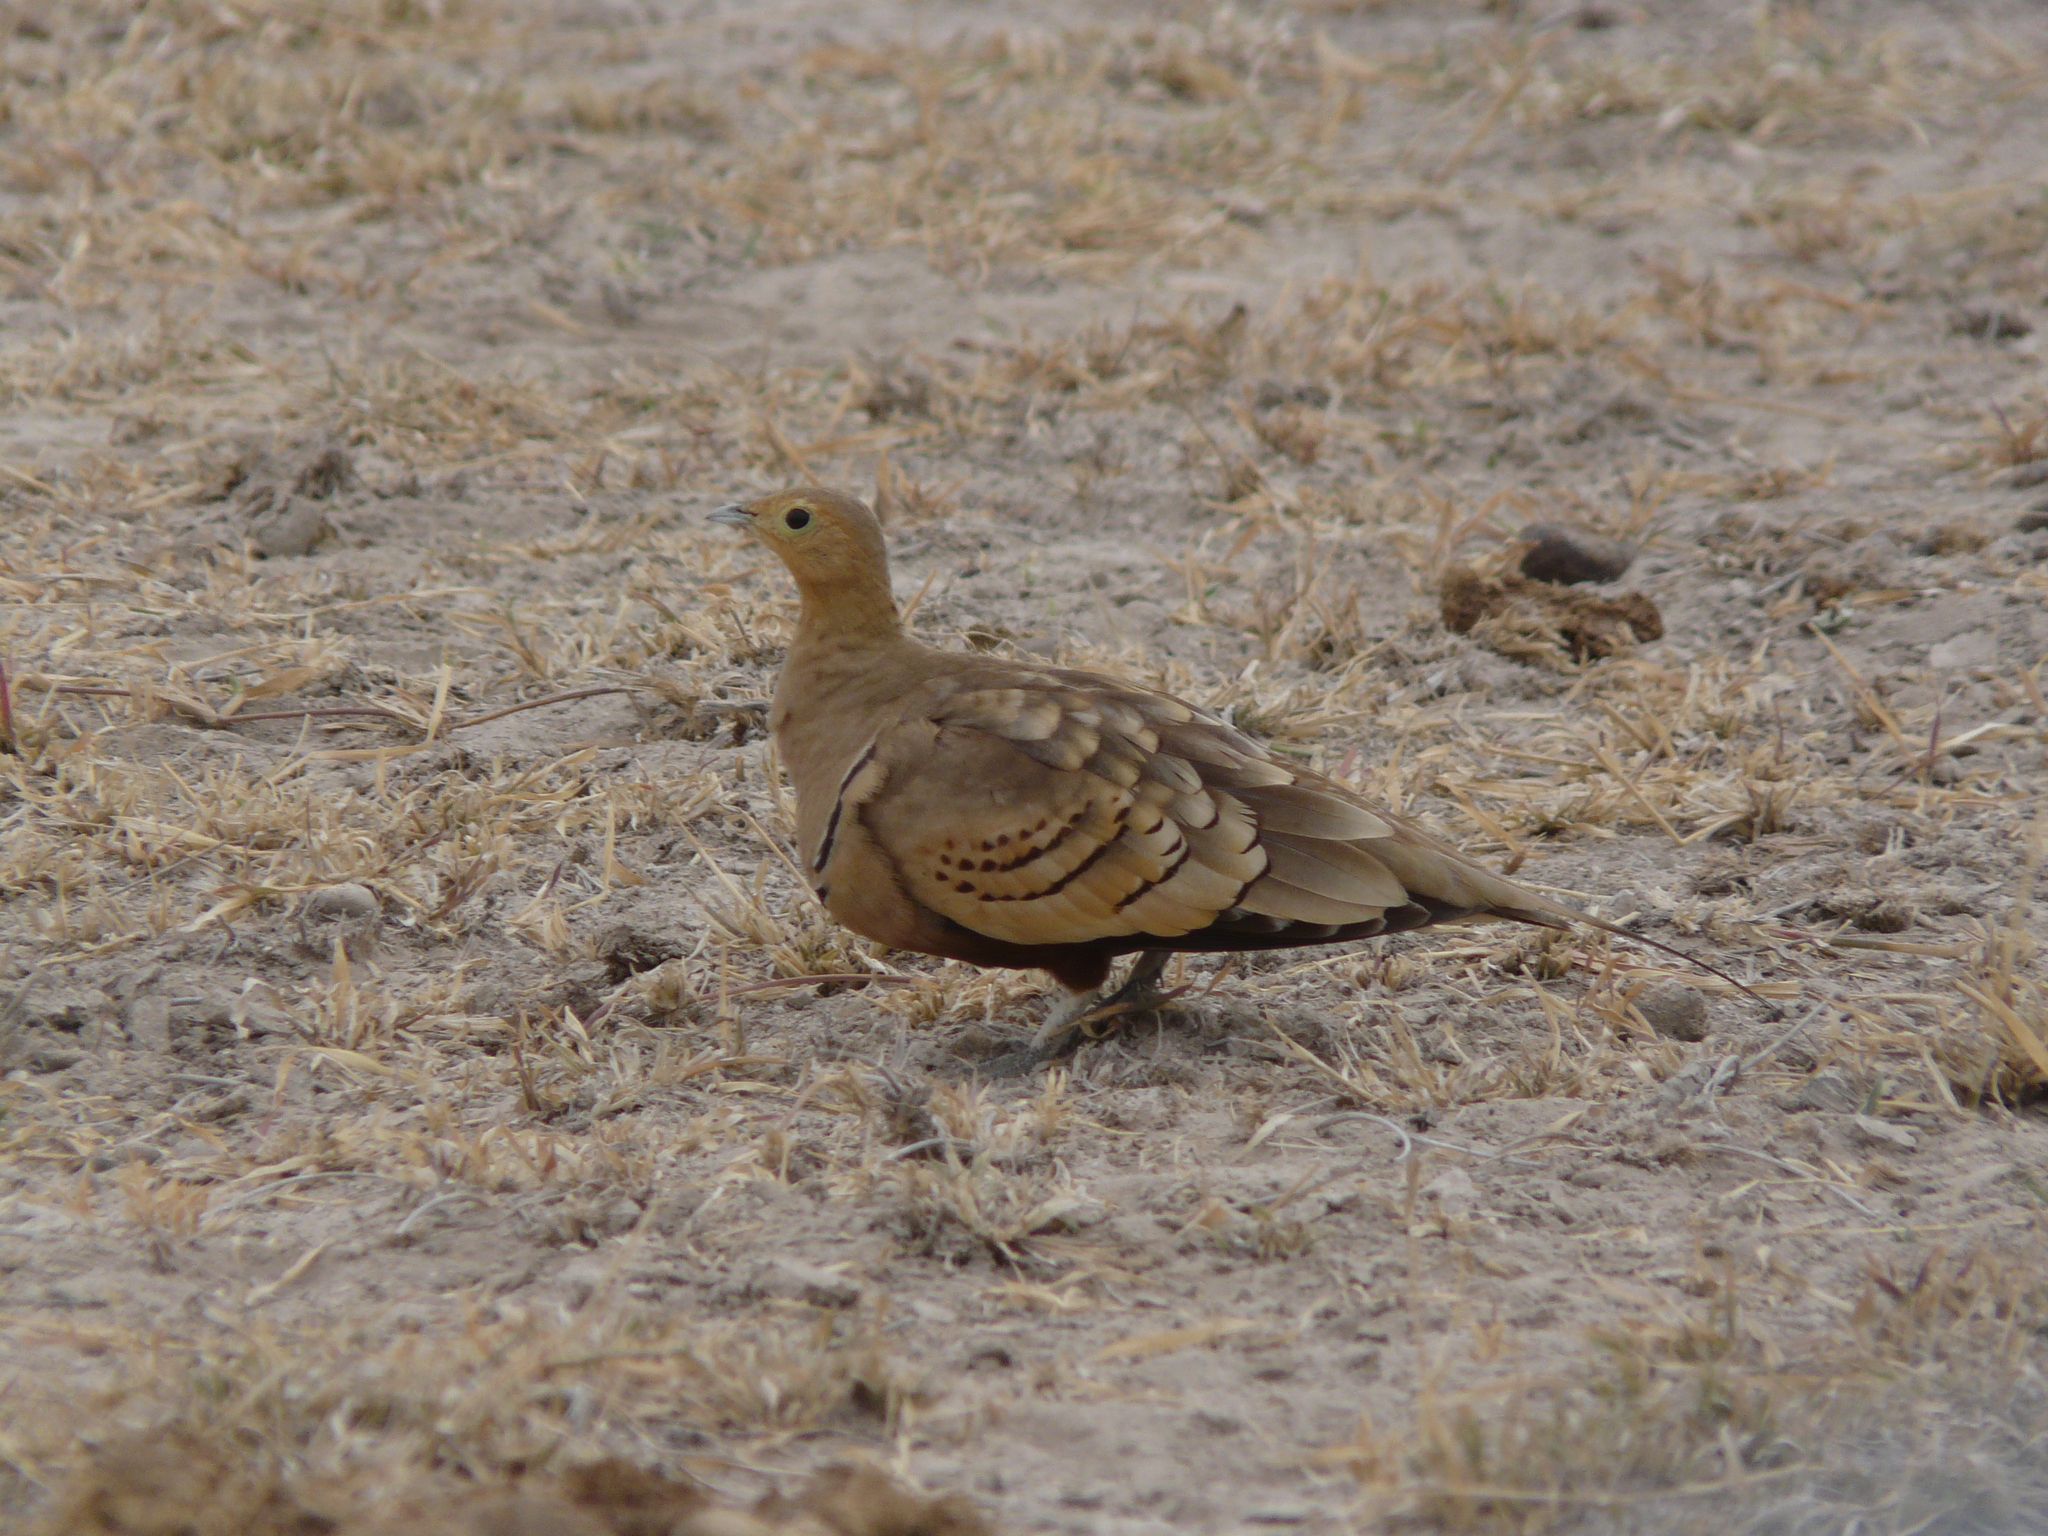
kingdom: Animalia
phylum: Chordata
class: Aves
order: Pteroclidiformes
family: Pteroclididae
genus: Pterocles
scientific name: Pterocles exustus
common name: Chestnut-bellied sandgrouse
